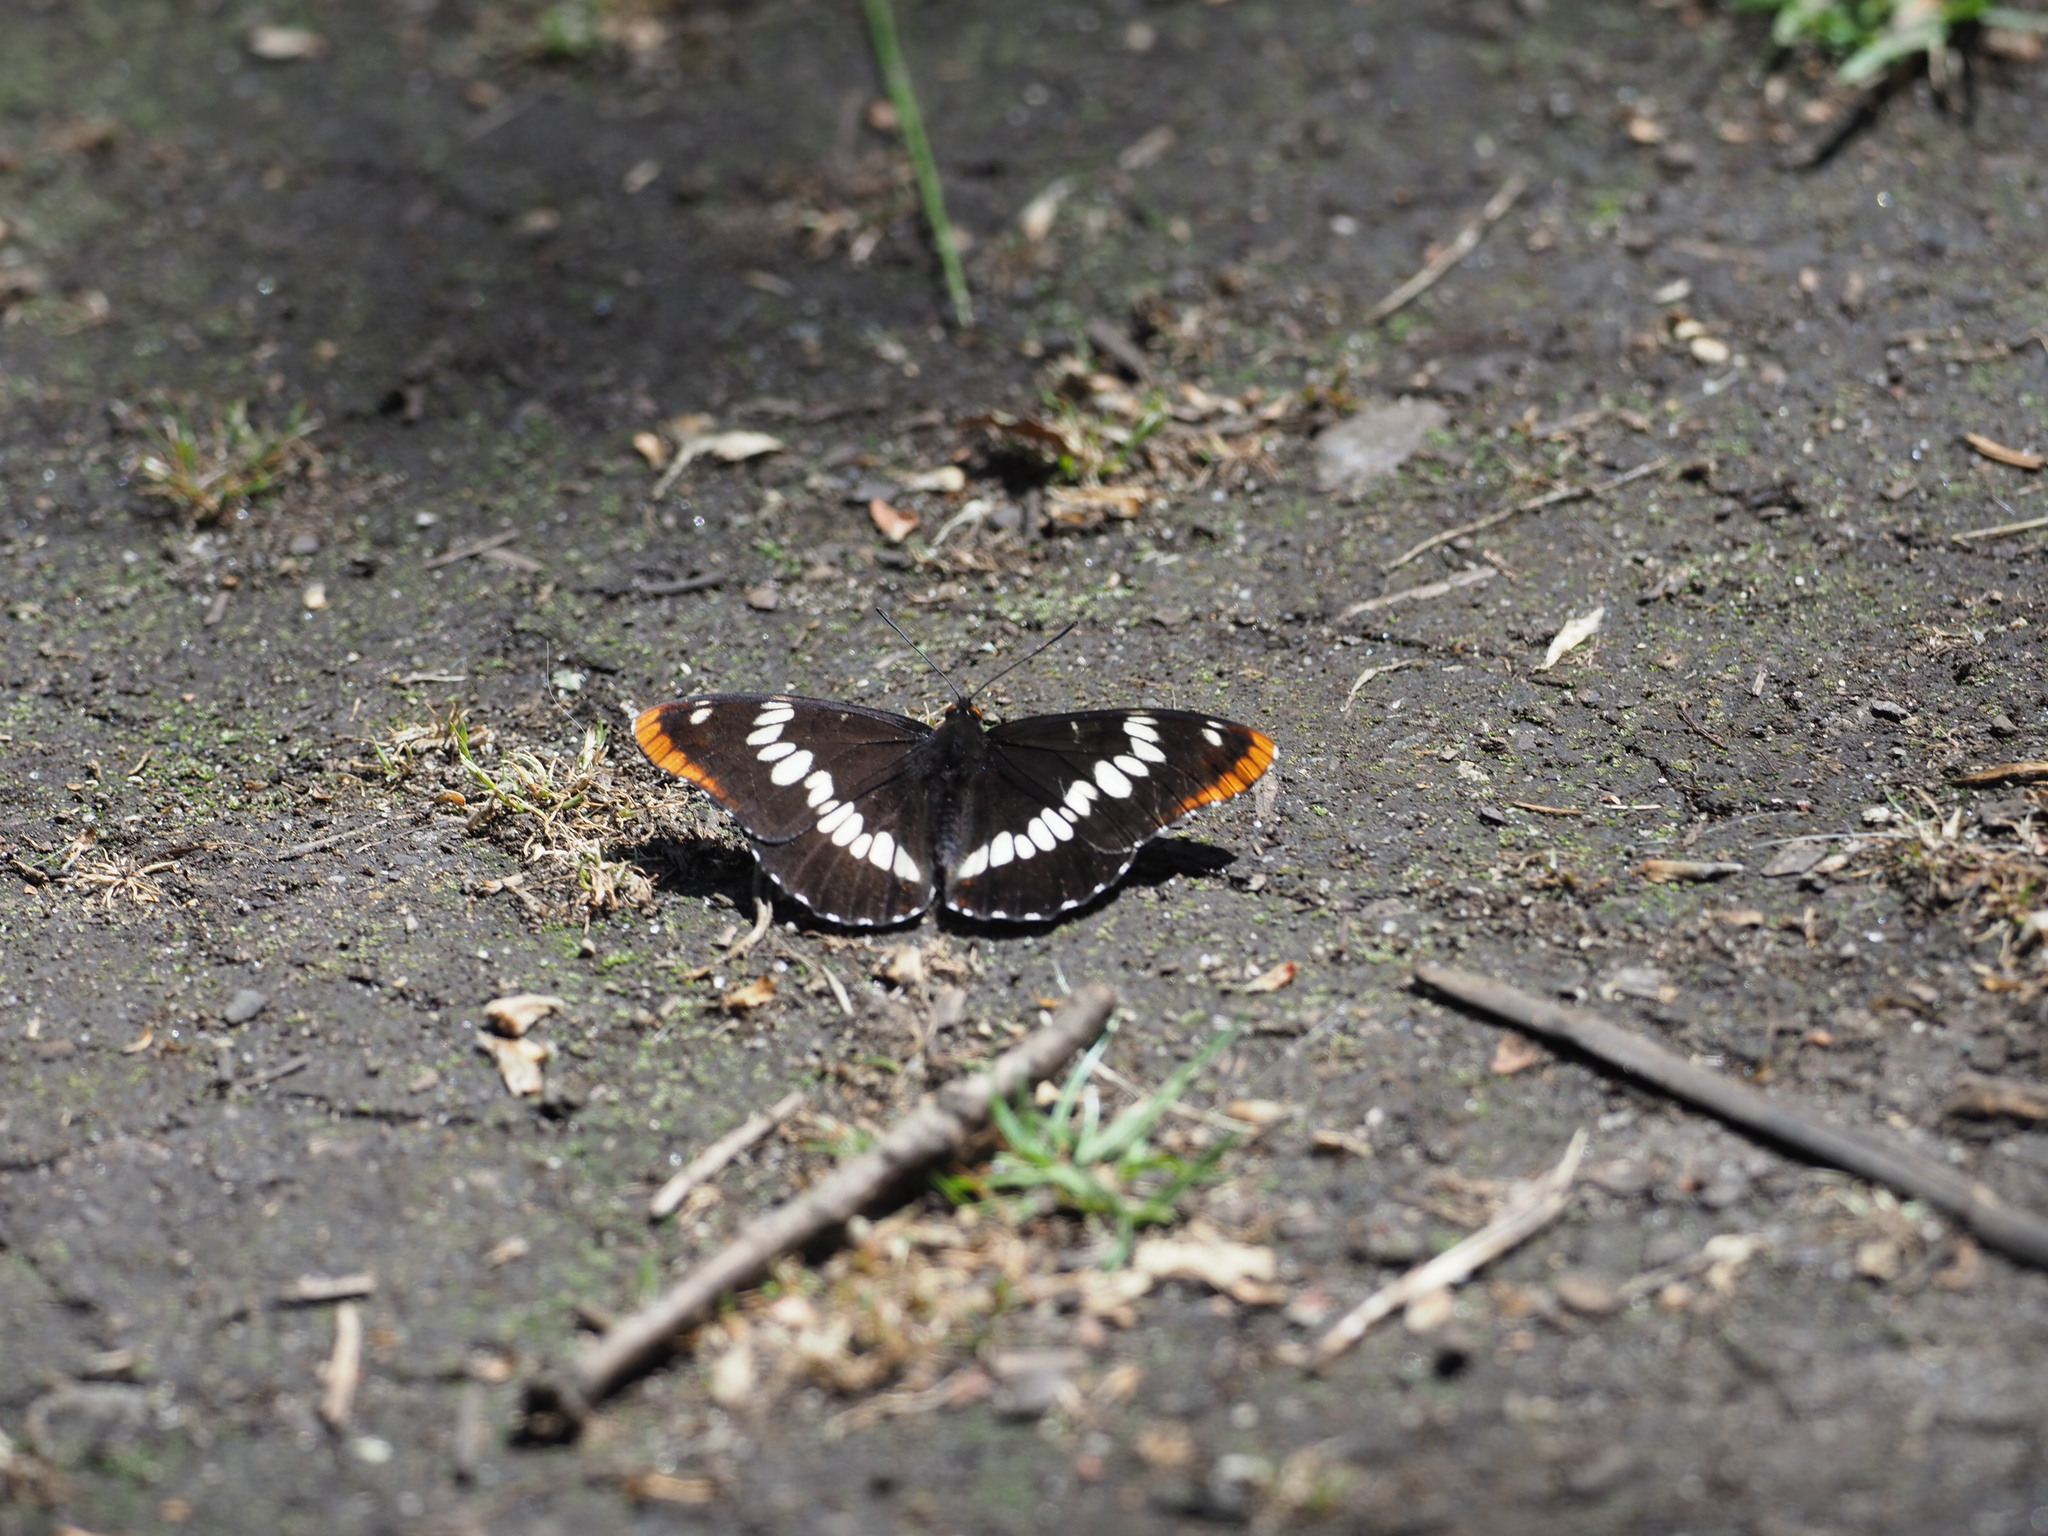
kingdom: Animalia
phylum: Arthropoda
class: Insecta
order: Lepidoptera
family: Nymphalidae
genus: Limenitis
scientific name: Limenitis lorquini
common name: Lorquin's admiral
